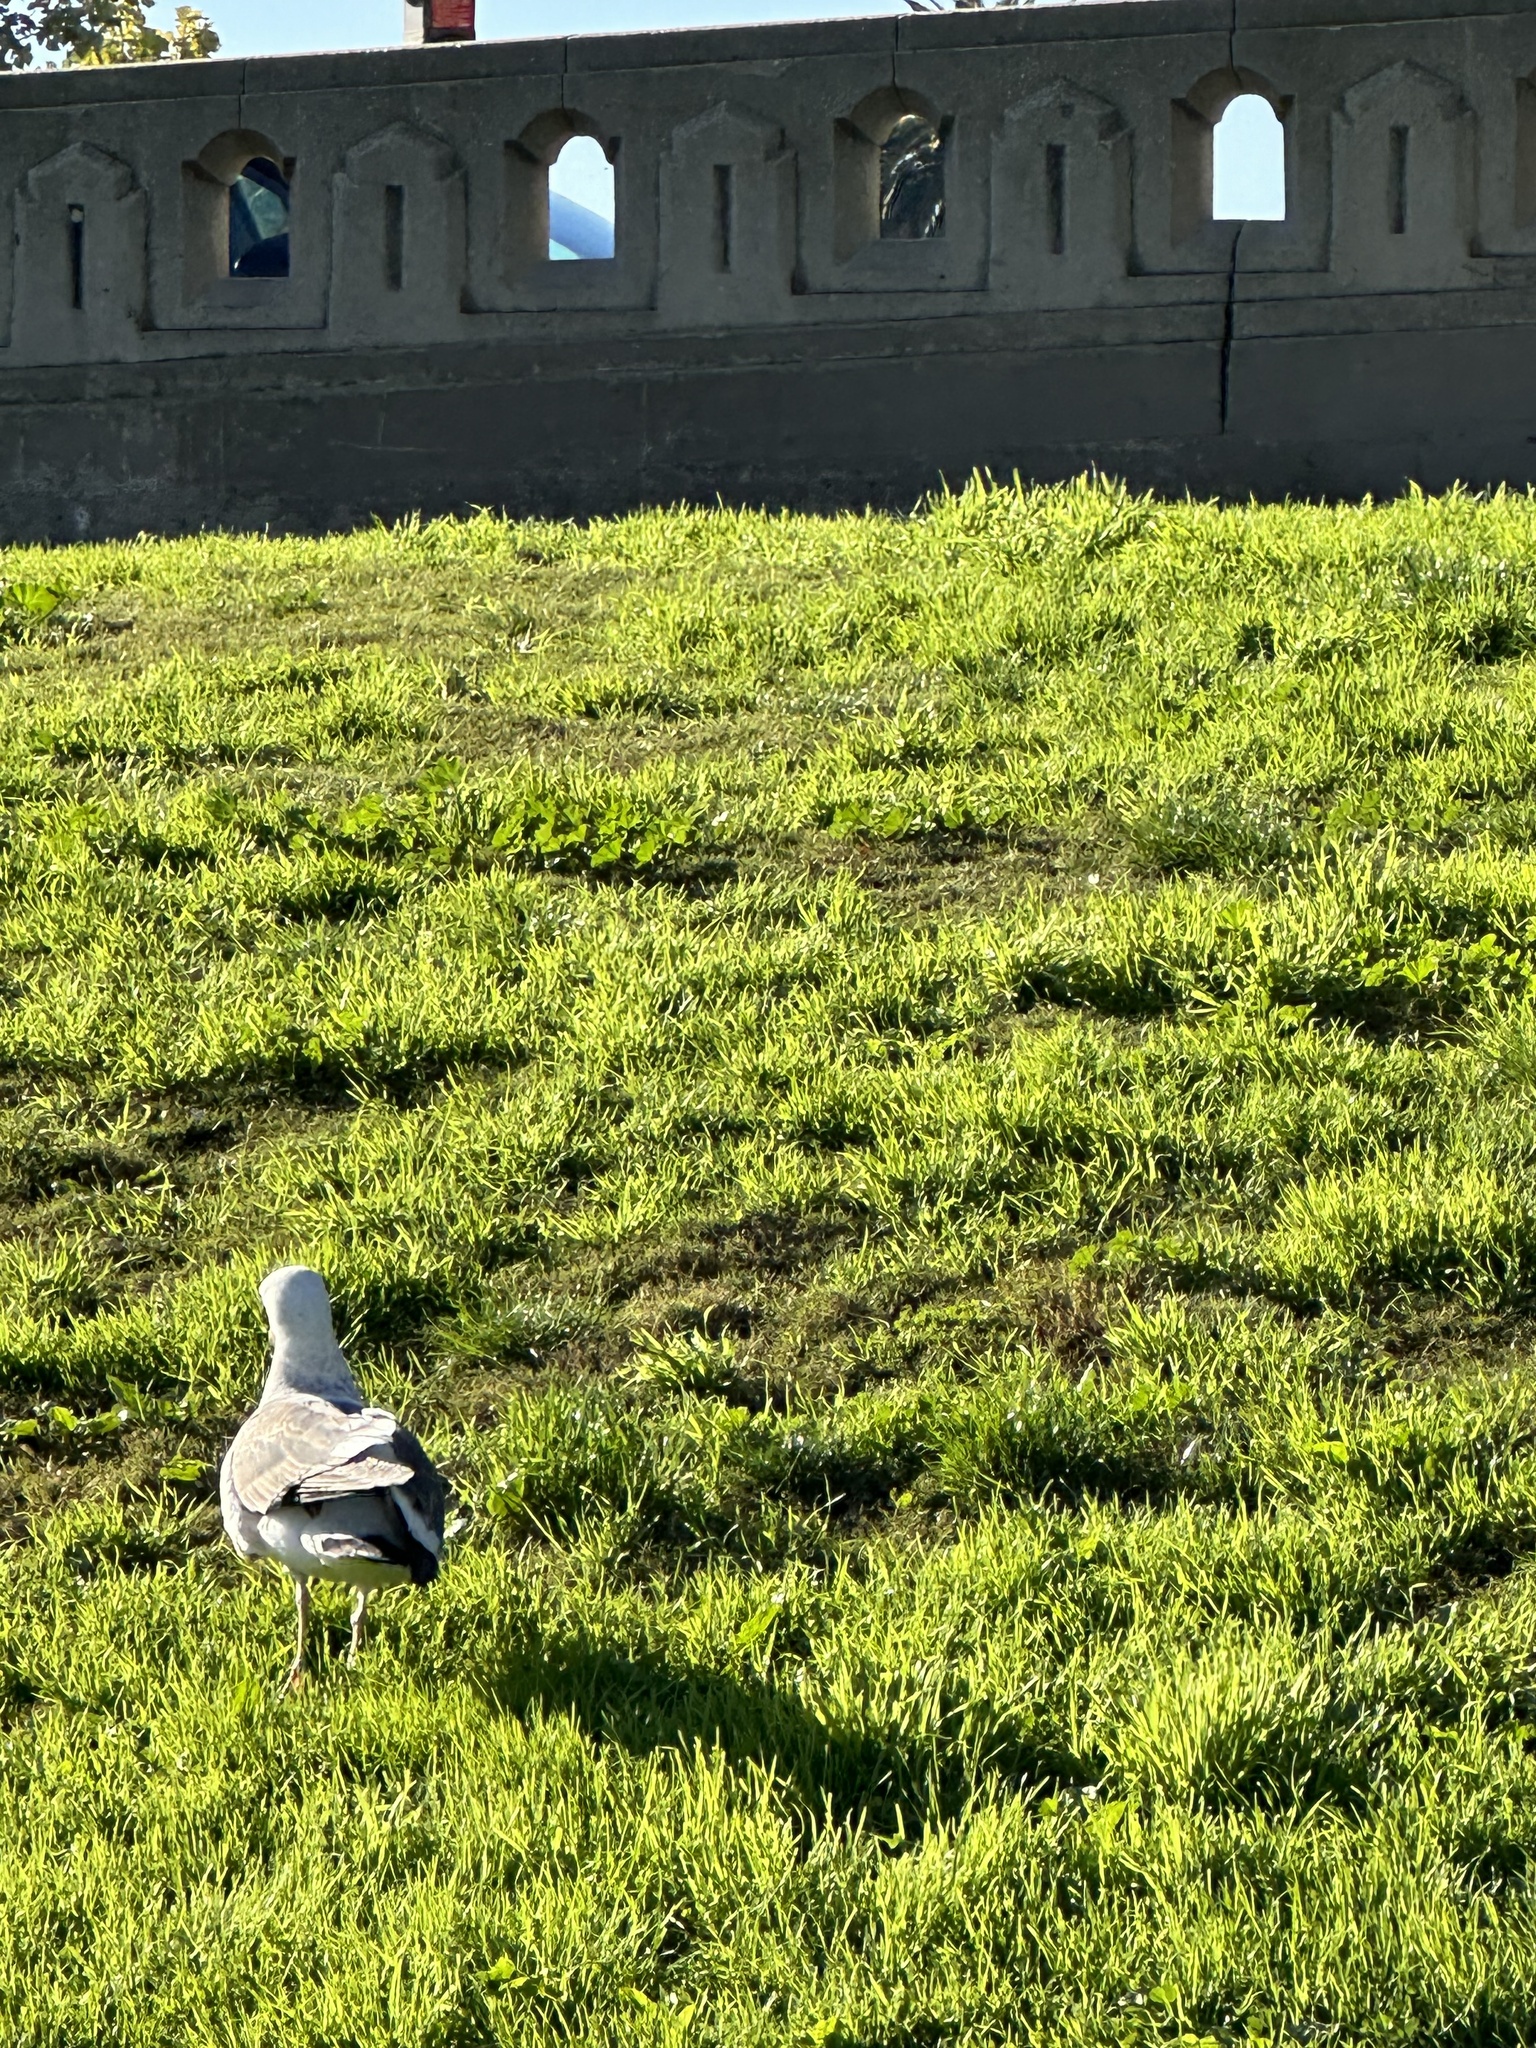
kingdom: Animalia
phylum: Chordata
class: Aves
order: Charadriiformes
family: Laridae
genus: Larus
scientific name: Larus occidentalis
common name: Western gull
